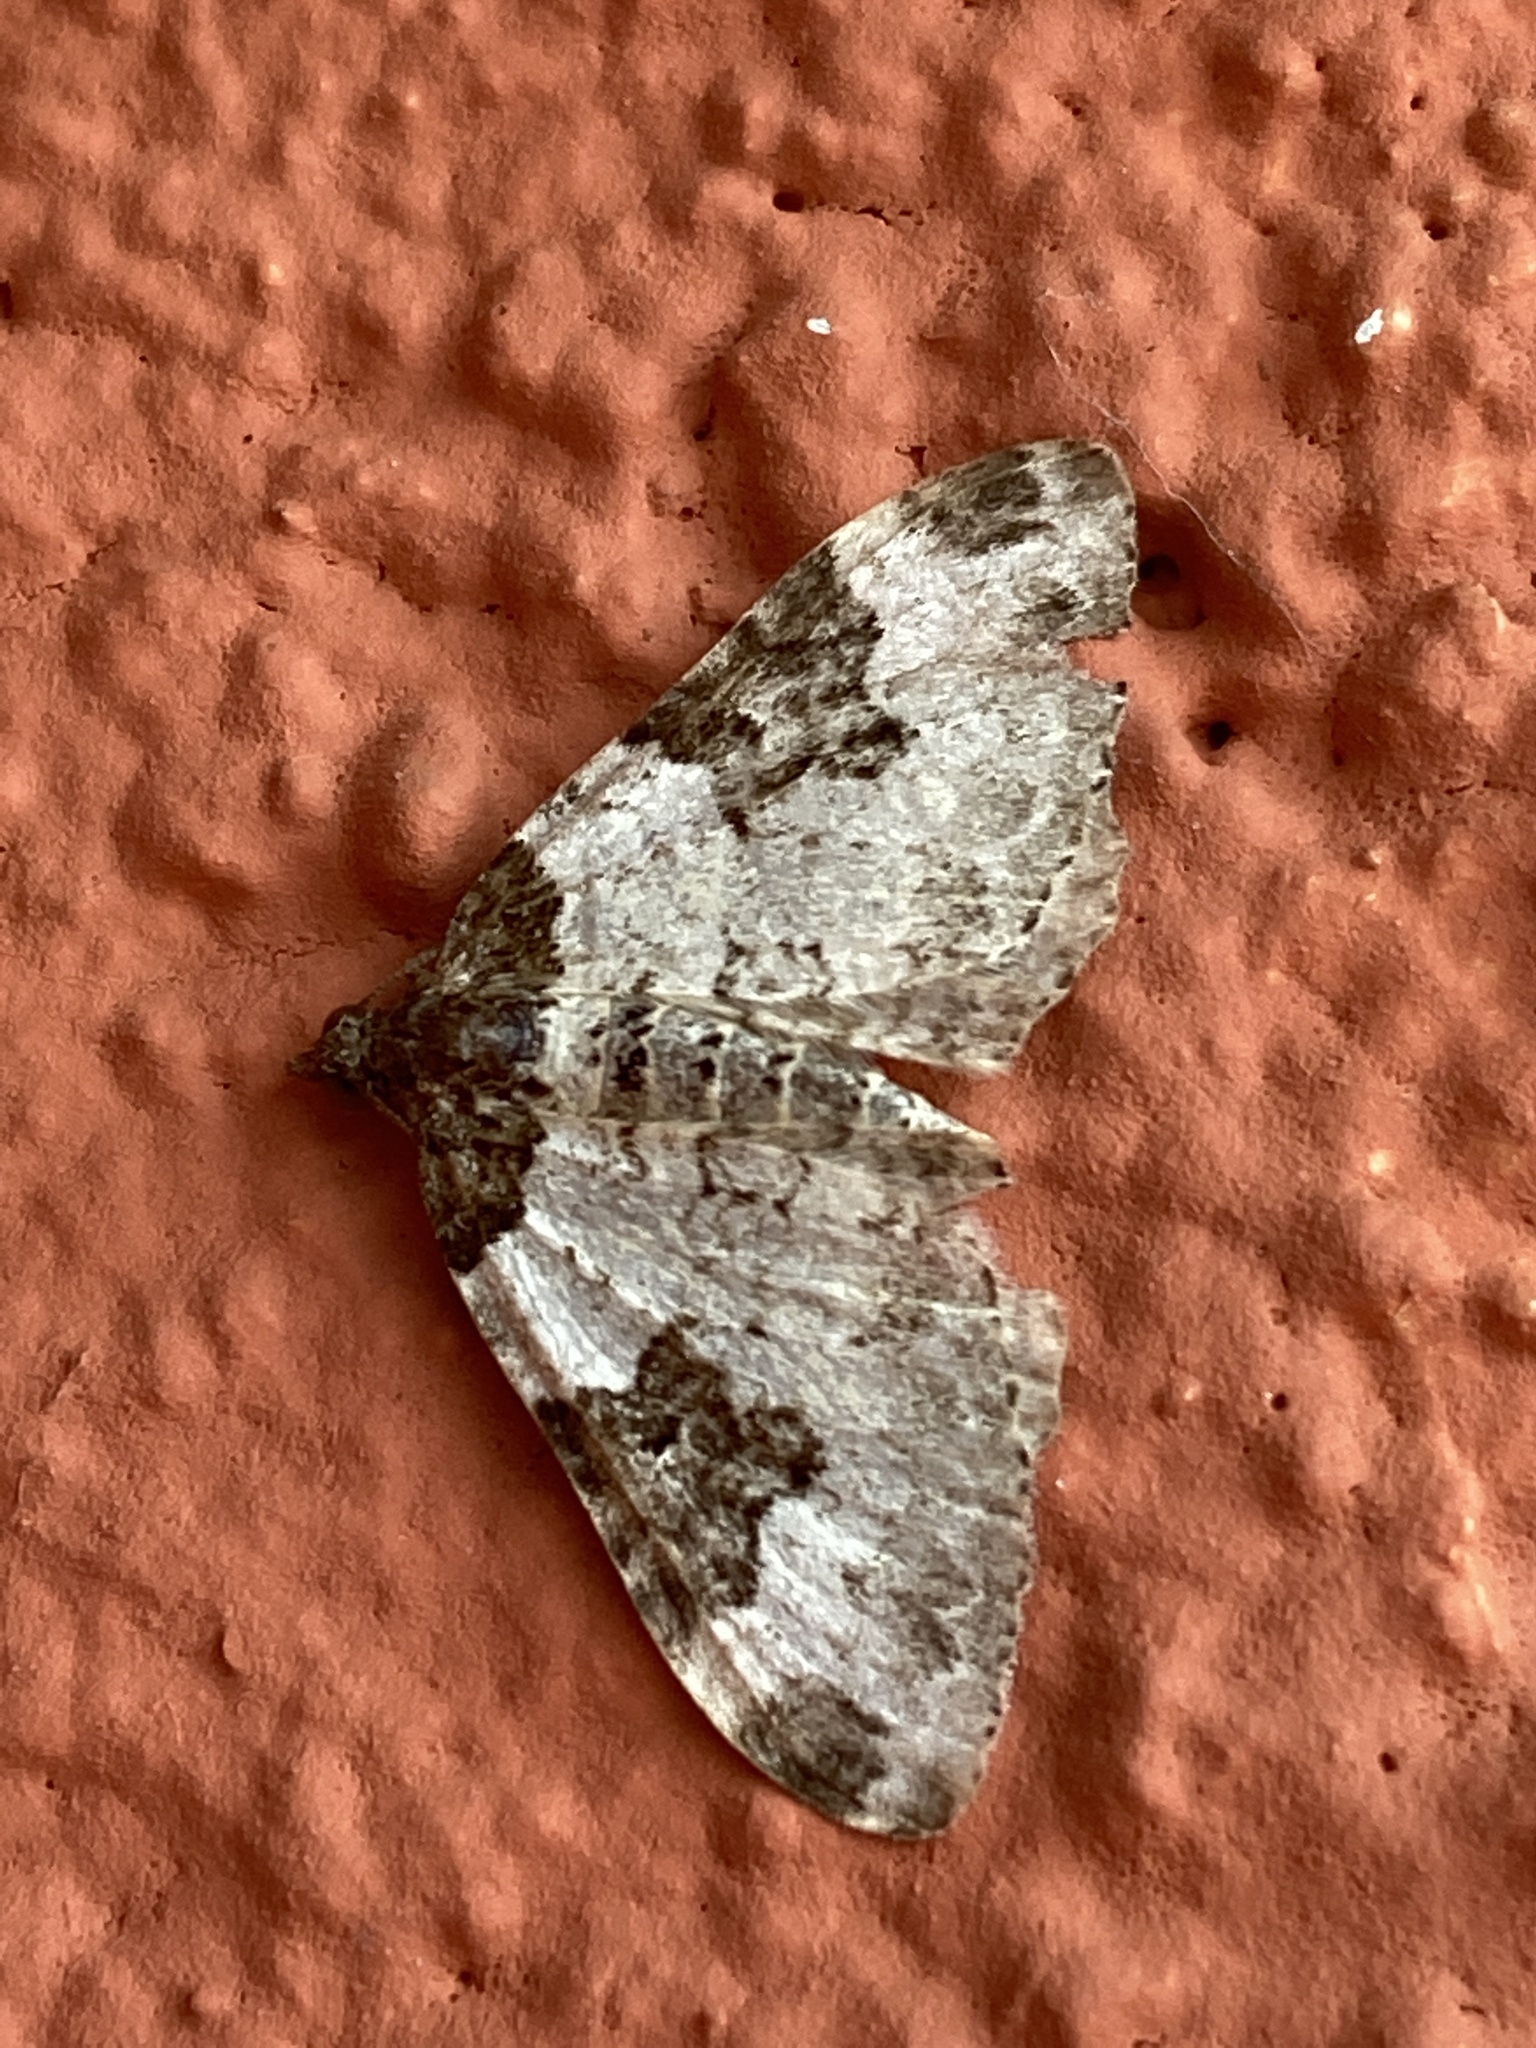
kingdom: Animalia
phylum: Arthropoda
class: Insecta
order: Lepidoptera
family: Geometridae
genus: Xanthorhoe
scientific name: Xanthorhoe fluctuata
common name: Garden carpet
